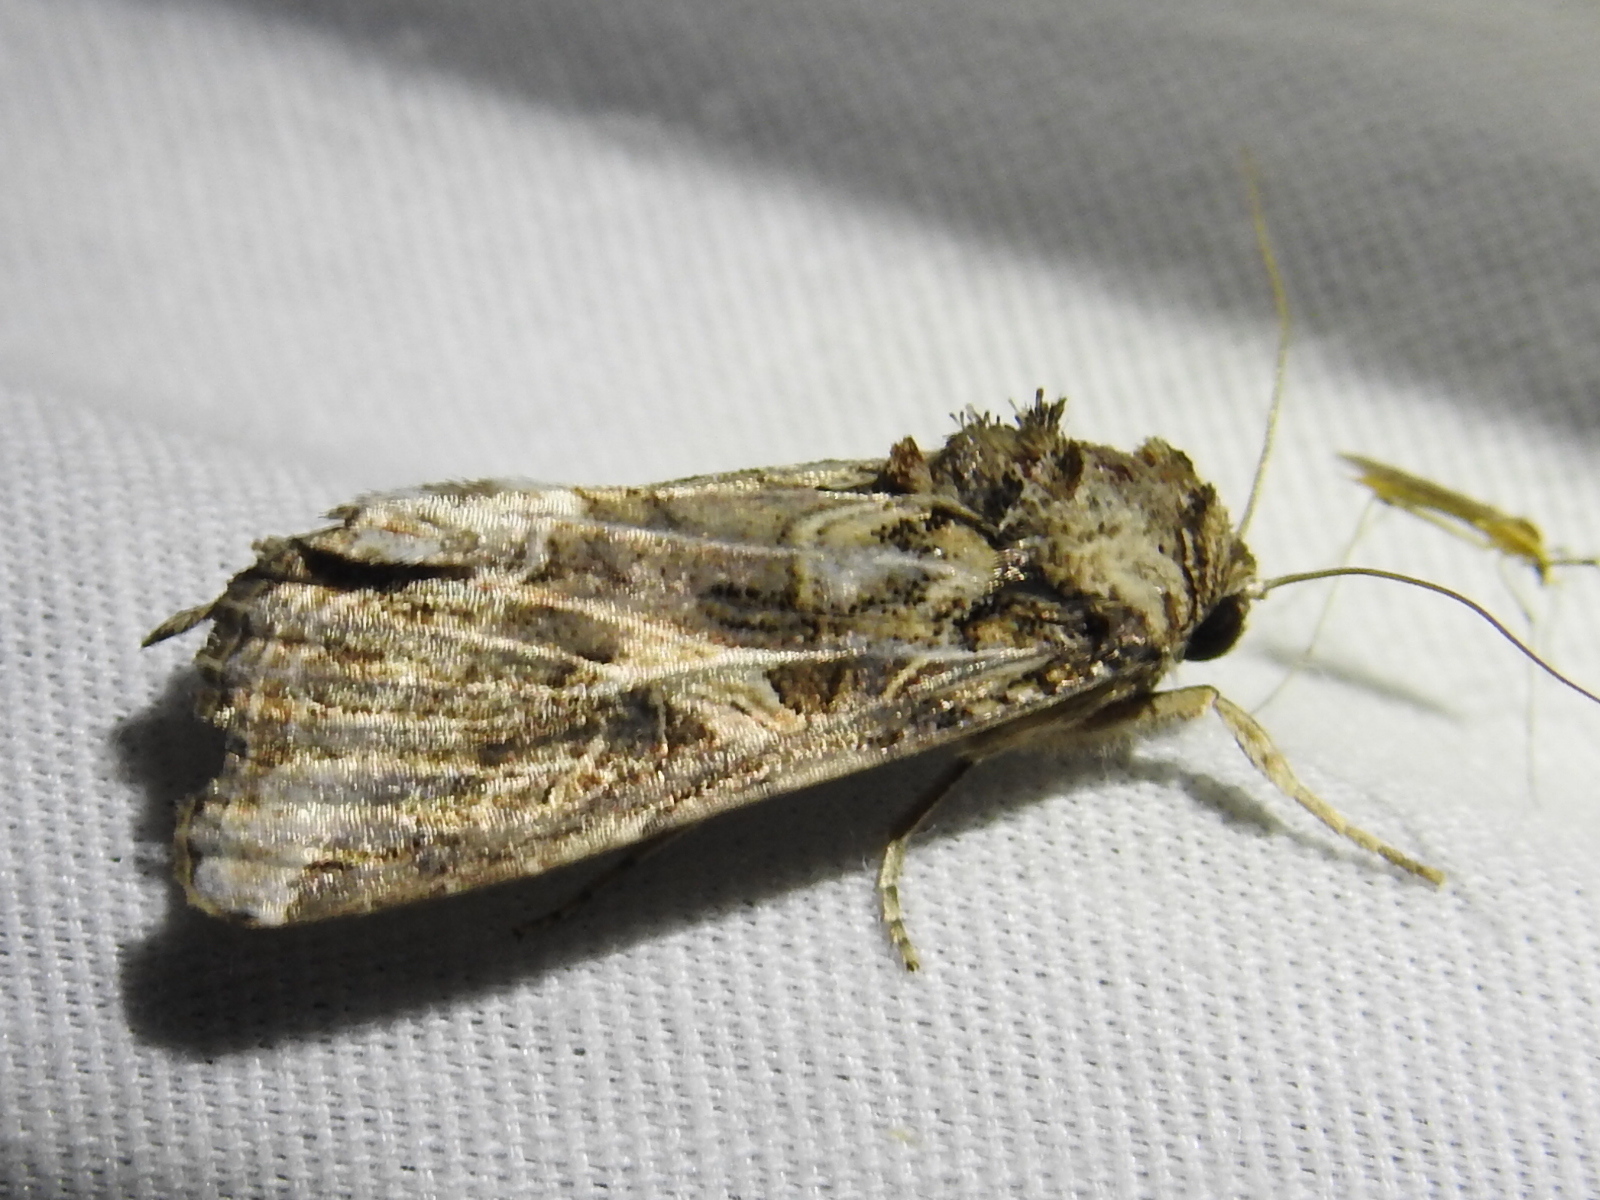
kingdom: Animalia
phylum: Arthropoda
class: Insecta
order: Lepidoptera
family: Noctuidae
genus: Spodoptera
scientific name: Spodoptera ornithogalli
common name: Yellow-striped armyworm
